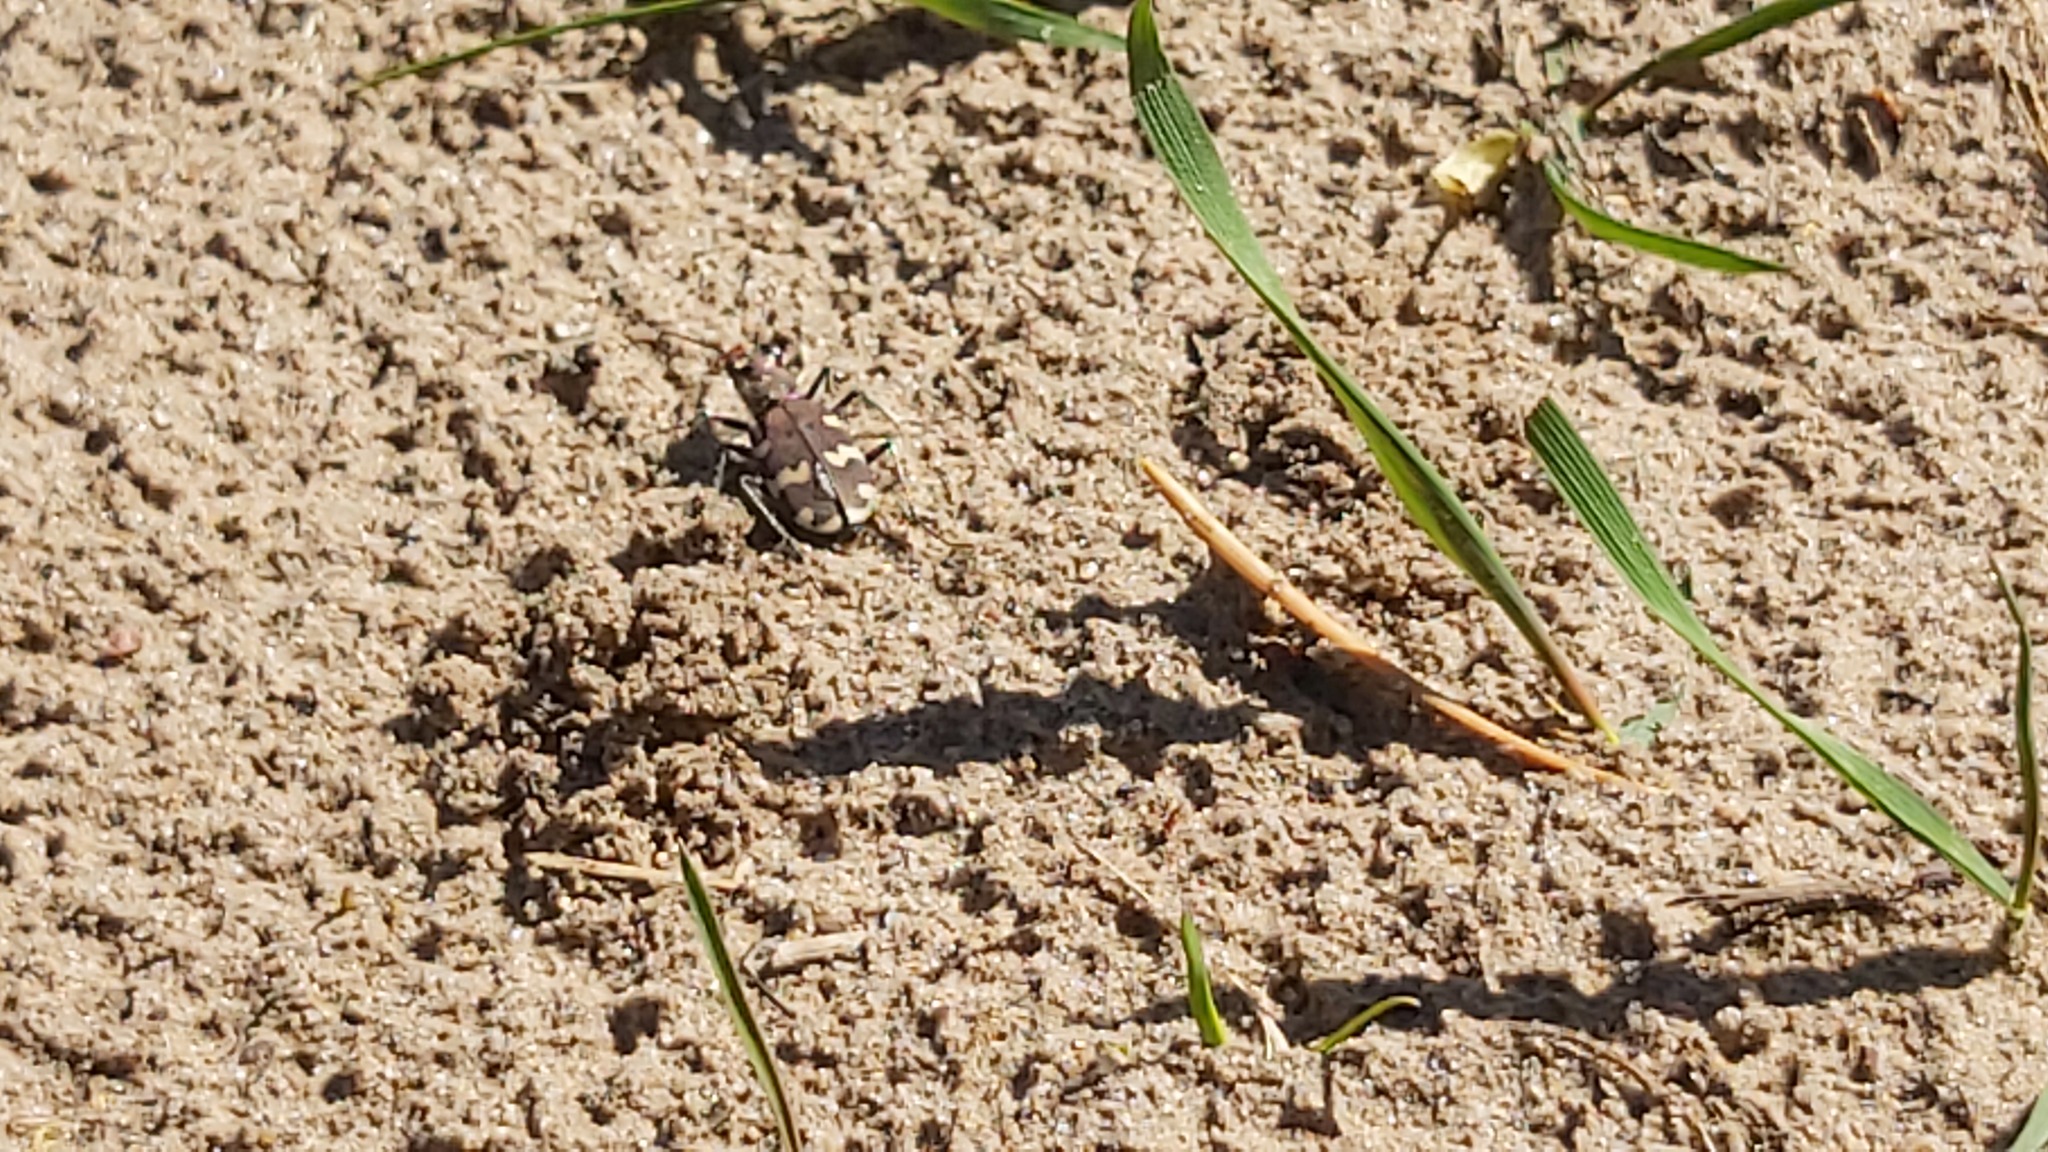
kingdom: Animalia
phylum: Arthropoda
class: Insecta
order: Coleoptera
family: Carabidae
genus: Cicindela
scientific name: Cicindela hybrida
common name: Northern dune tiger beetle
